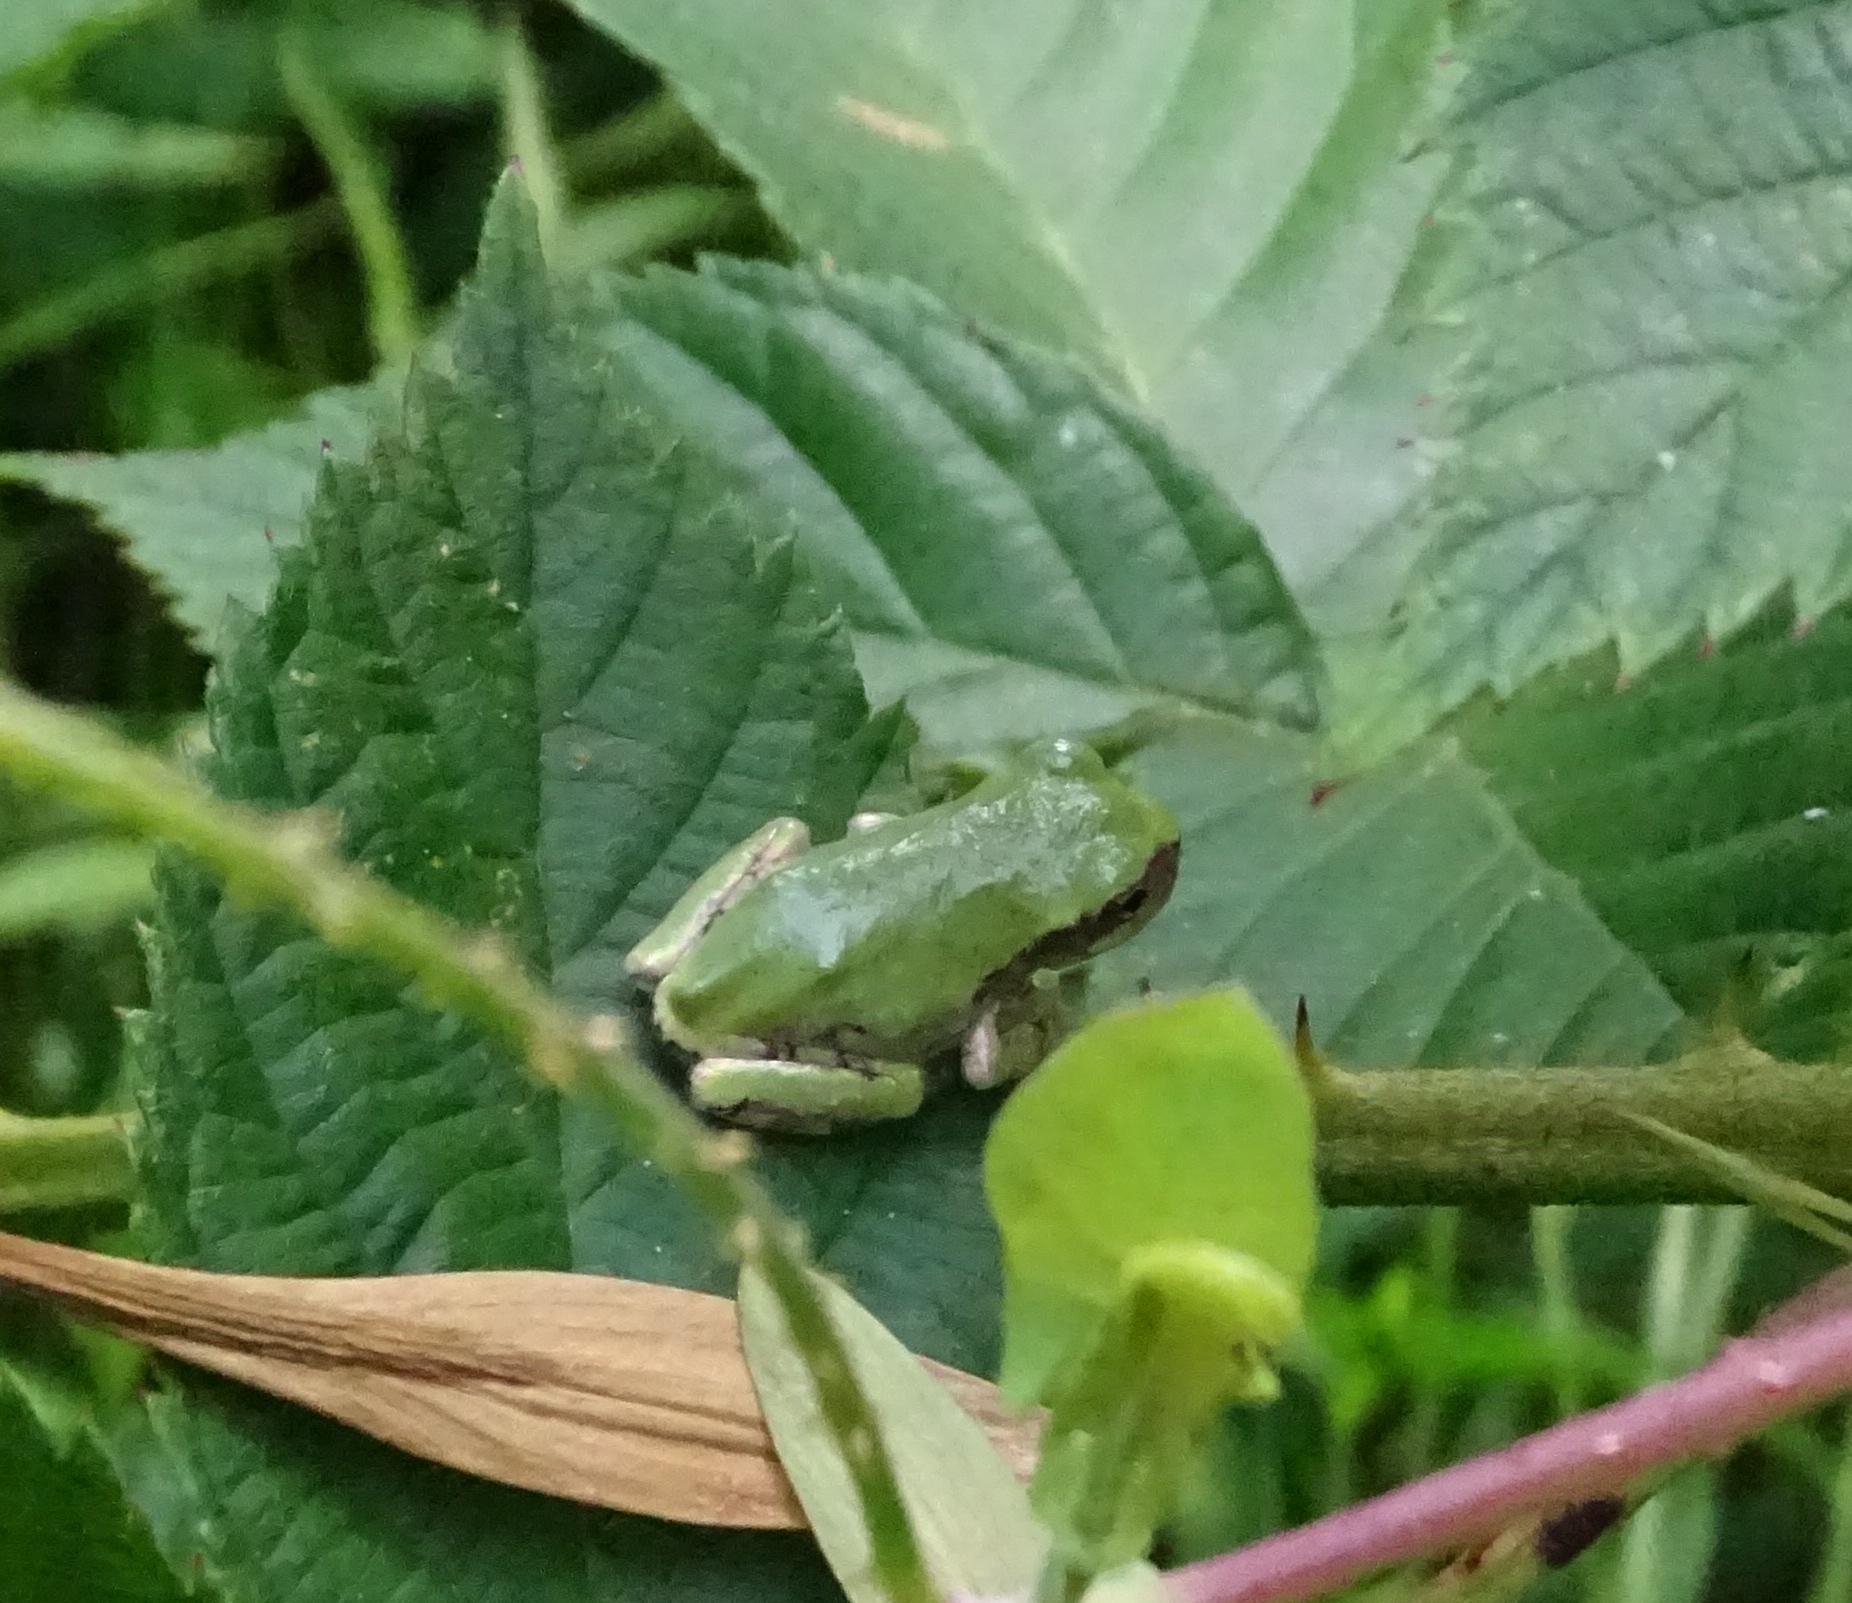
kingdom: Animalia
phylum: Chordata
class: Amphibia
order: Anura
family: Hylidae
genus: Dryophytes
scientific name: Dryophytes versicolor
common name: Gray treefrog
